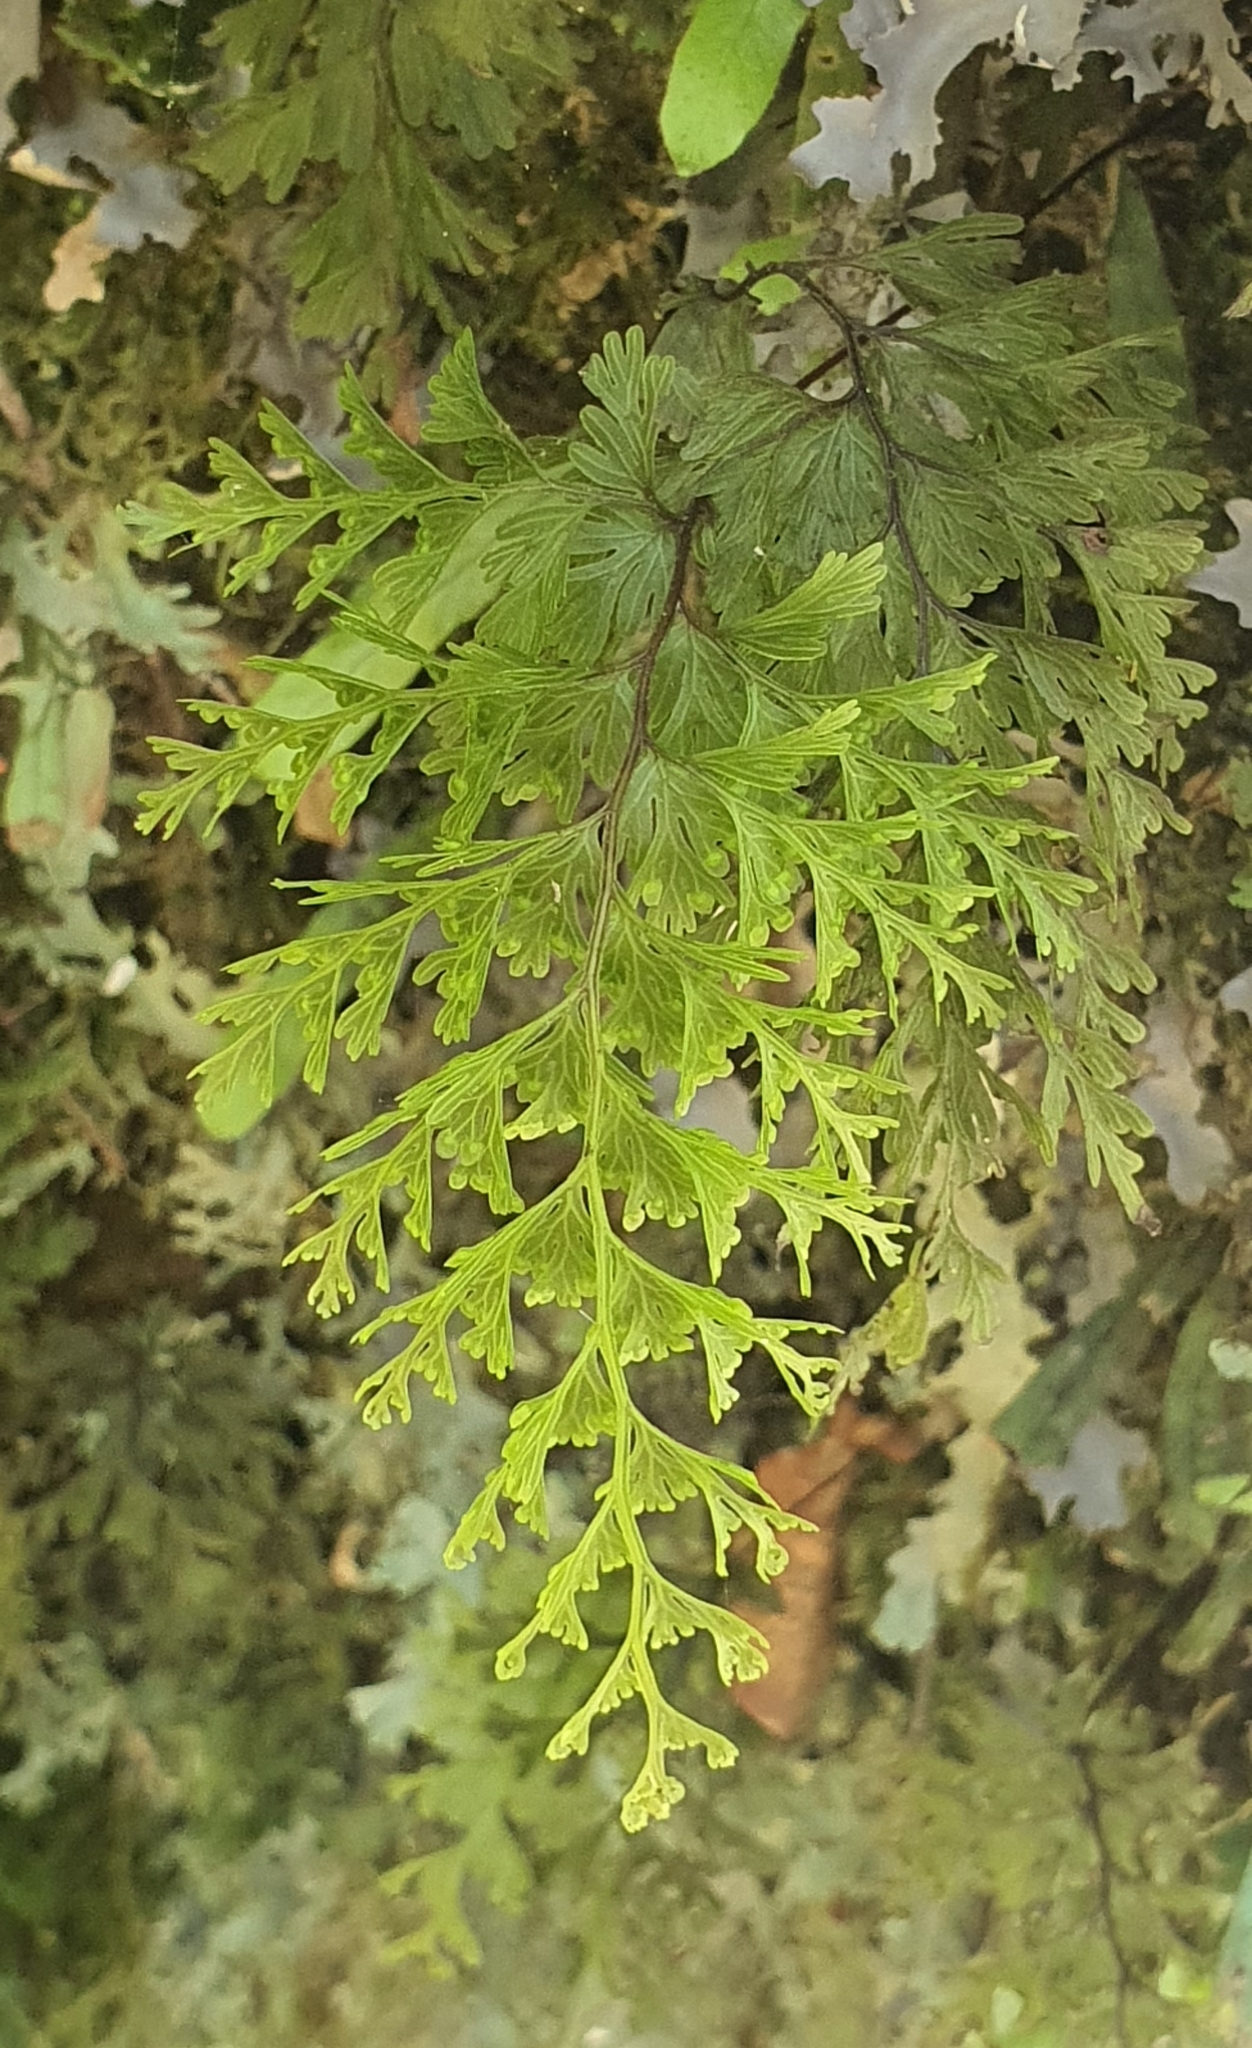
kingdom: Plantae
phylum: Tracheophyta
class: Polypodiopsida
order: Hymenophyllales
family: Hymenophyllaceae
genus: Hymenophyllum
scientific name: Hymenophyllum demissum
